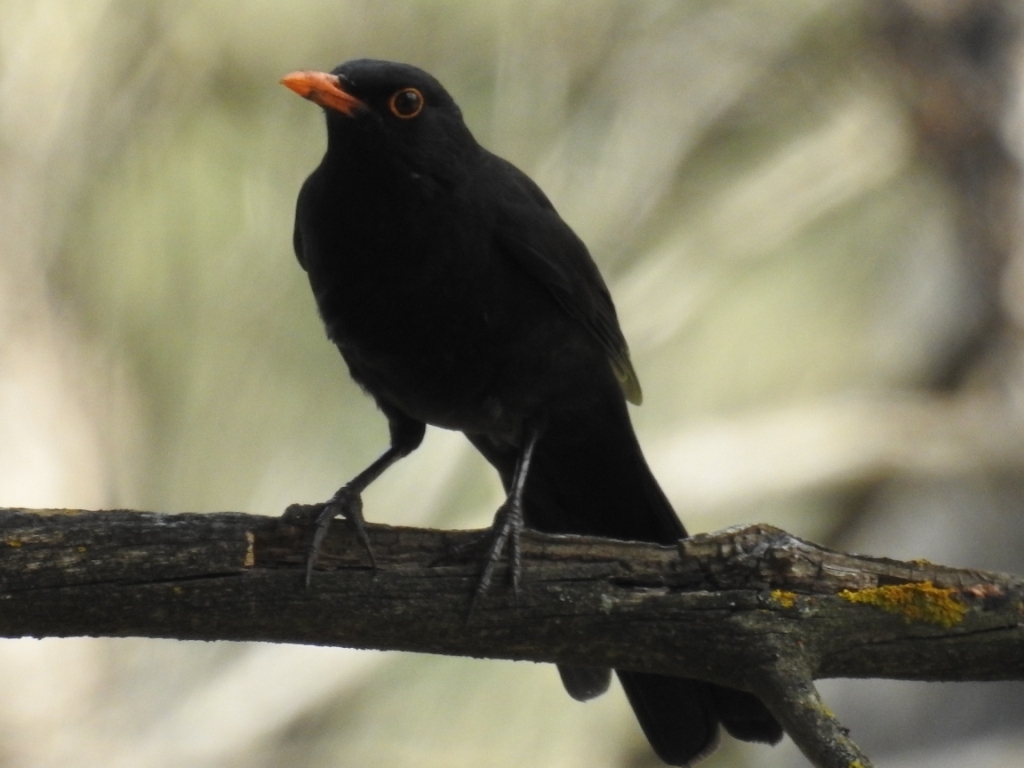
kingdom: Animalia
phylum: Chordata
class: Aves
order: Passeriformes
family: Turdidae
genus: Turdus
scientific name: Turdus merula
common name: Common blackbird
